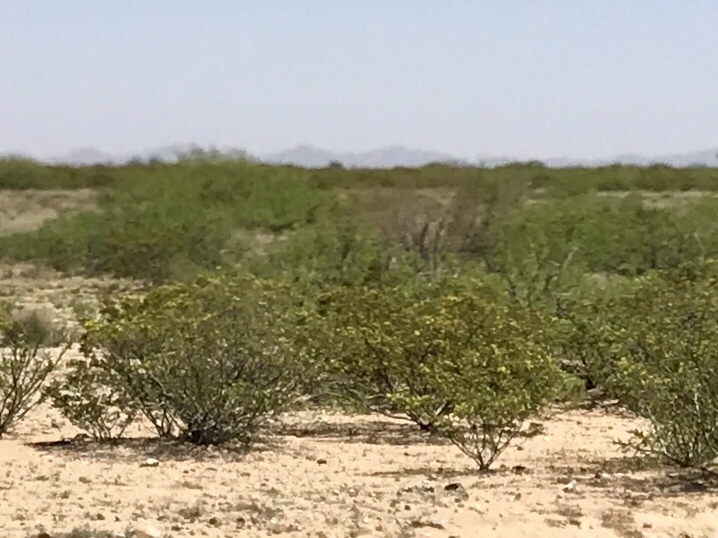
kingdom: Plantae
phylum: Tracheophyta
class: Magnoliopsida
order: Zygophyllales
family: Zygophyllaceae
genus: Larrea
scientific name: Larrea tridentata
